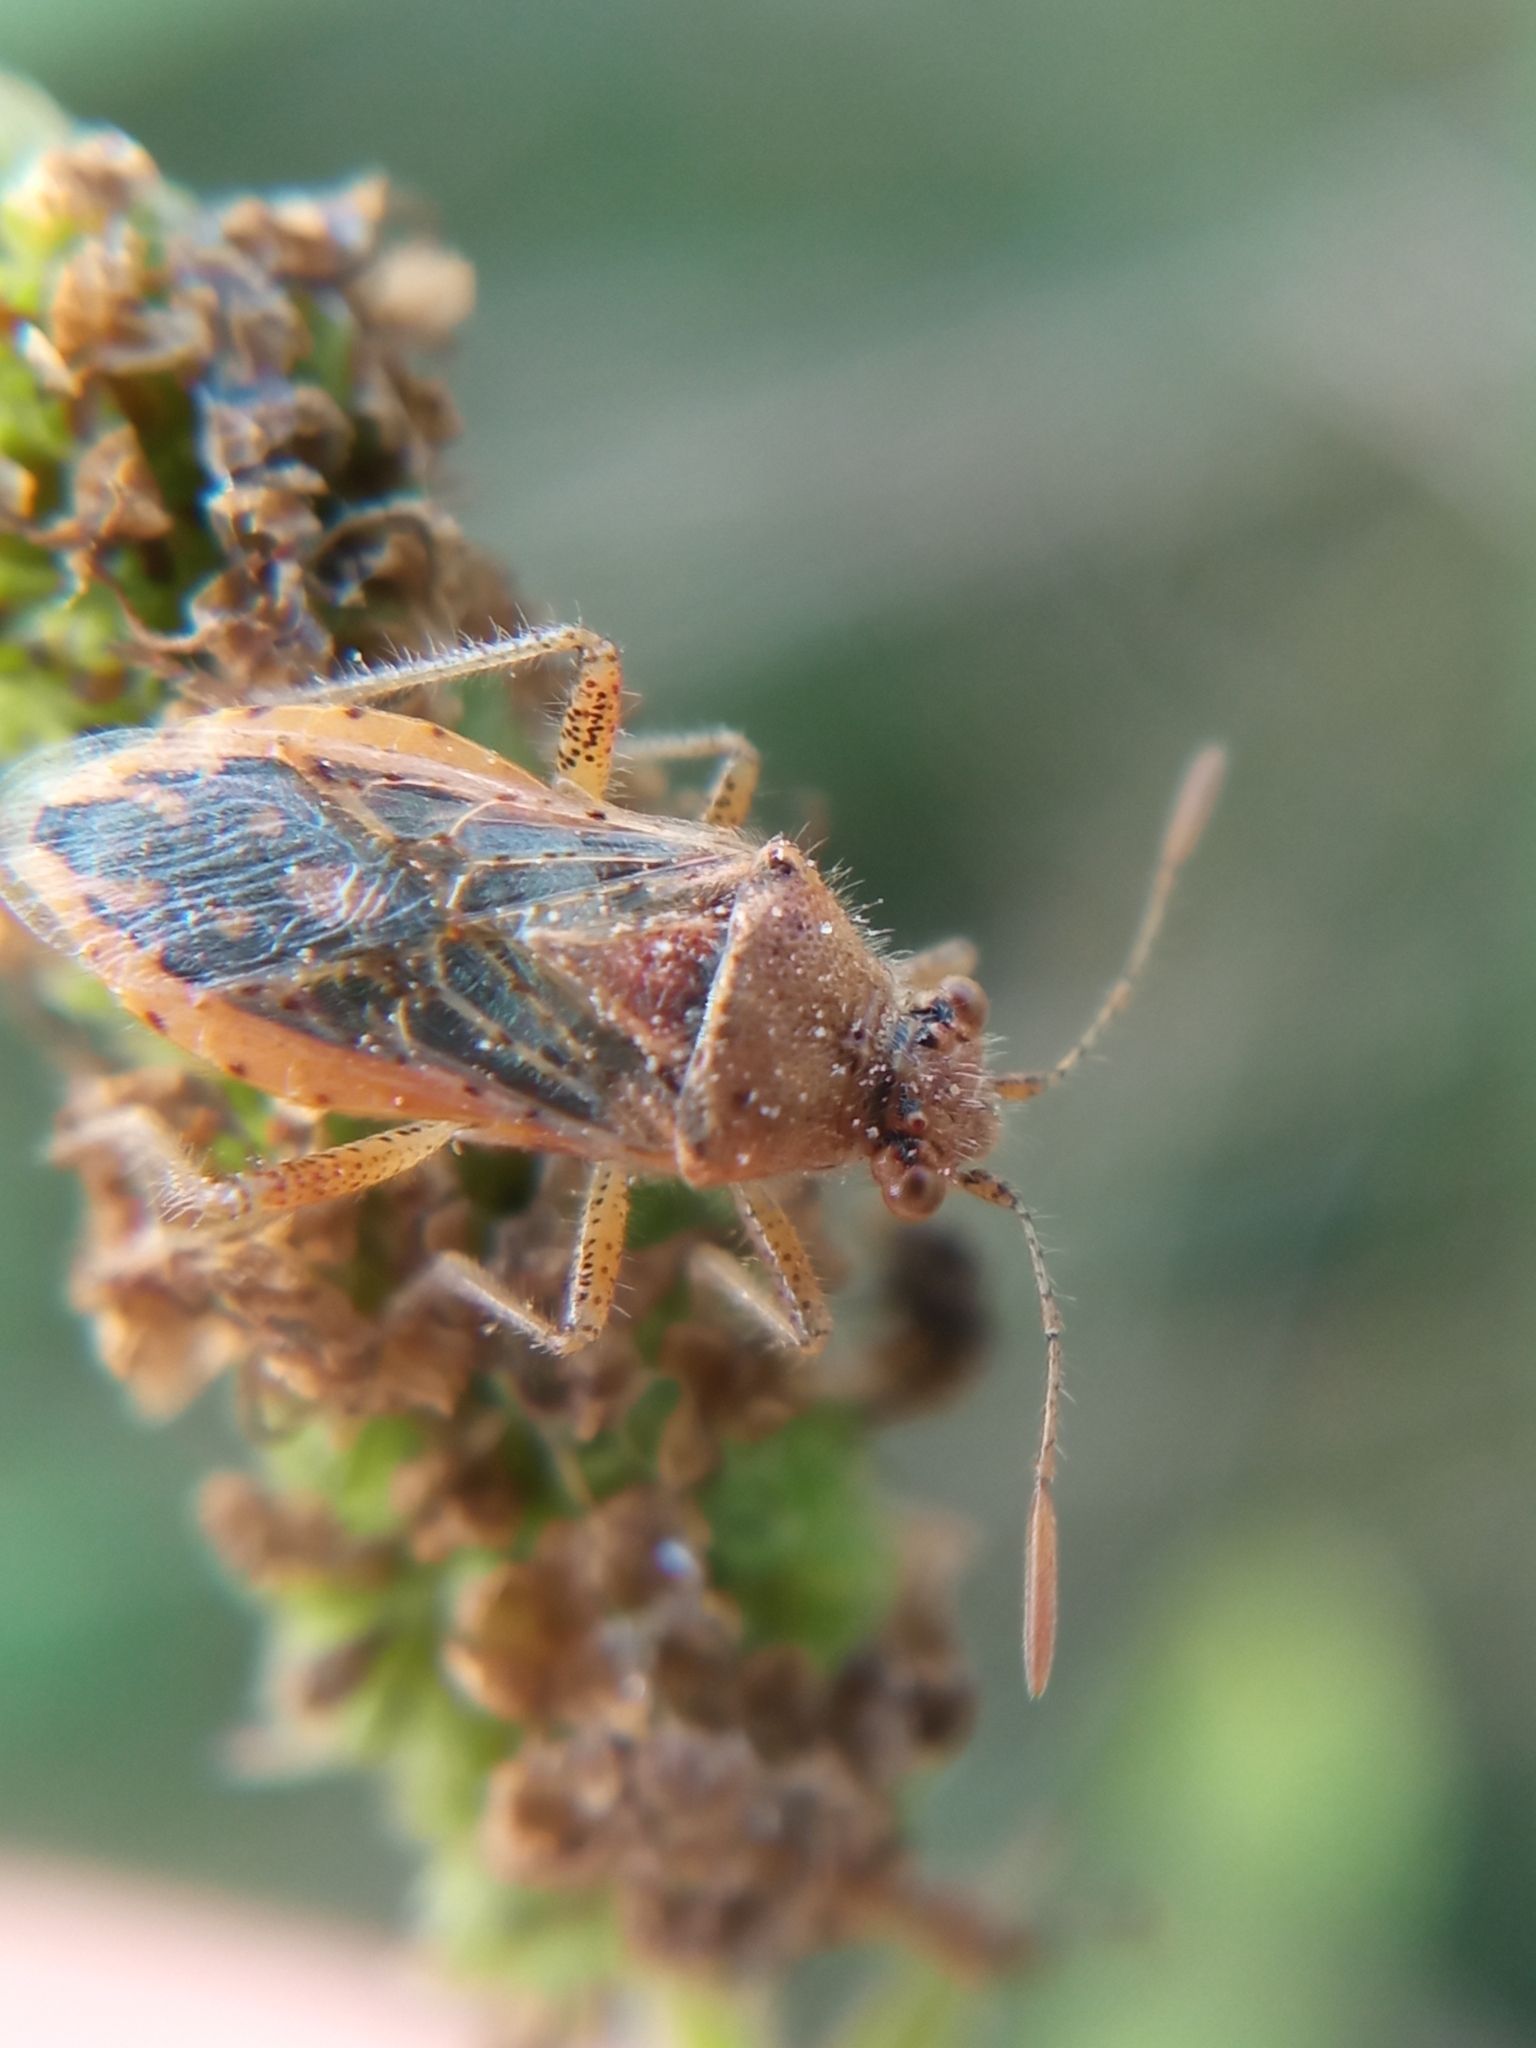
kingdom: Animalia
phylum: Arthropoda
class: Insecta
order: Hemiptera
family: Rhopalidae
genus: Rhopalus
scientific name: Rhopalus parumpunctatus
